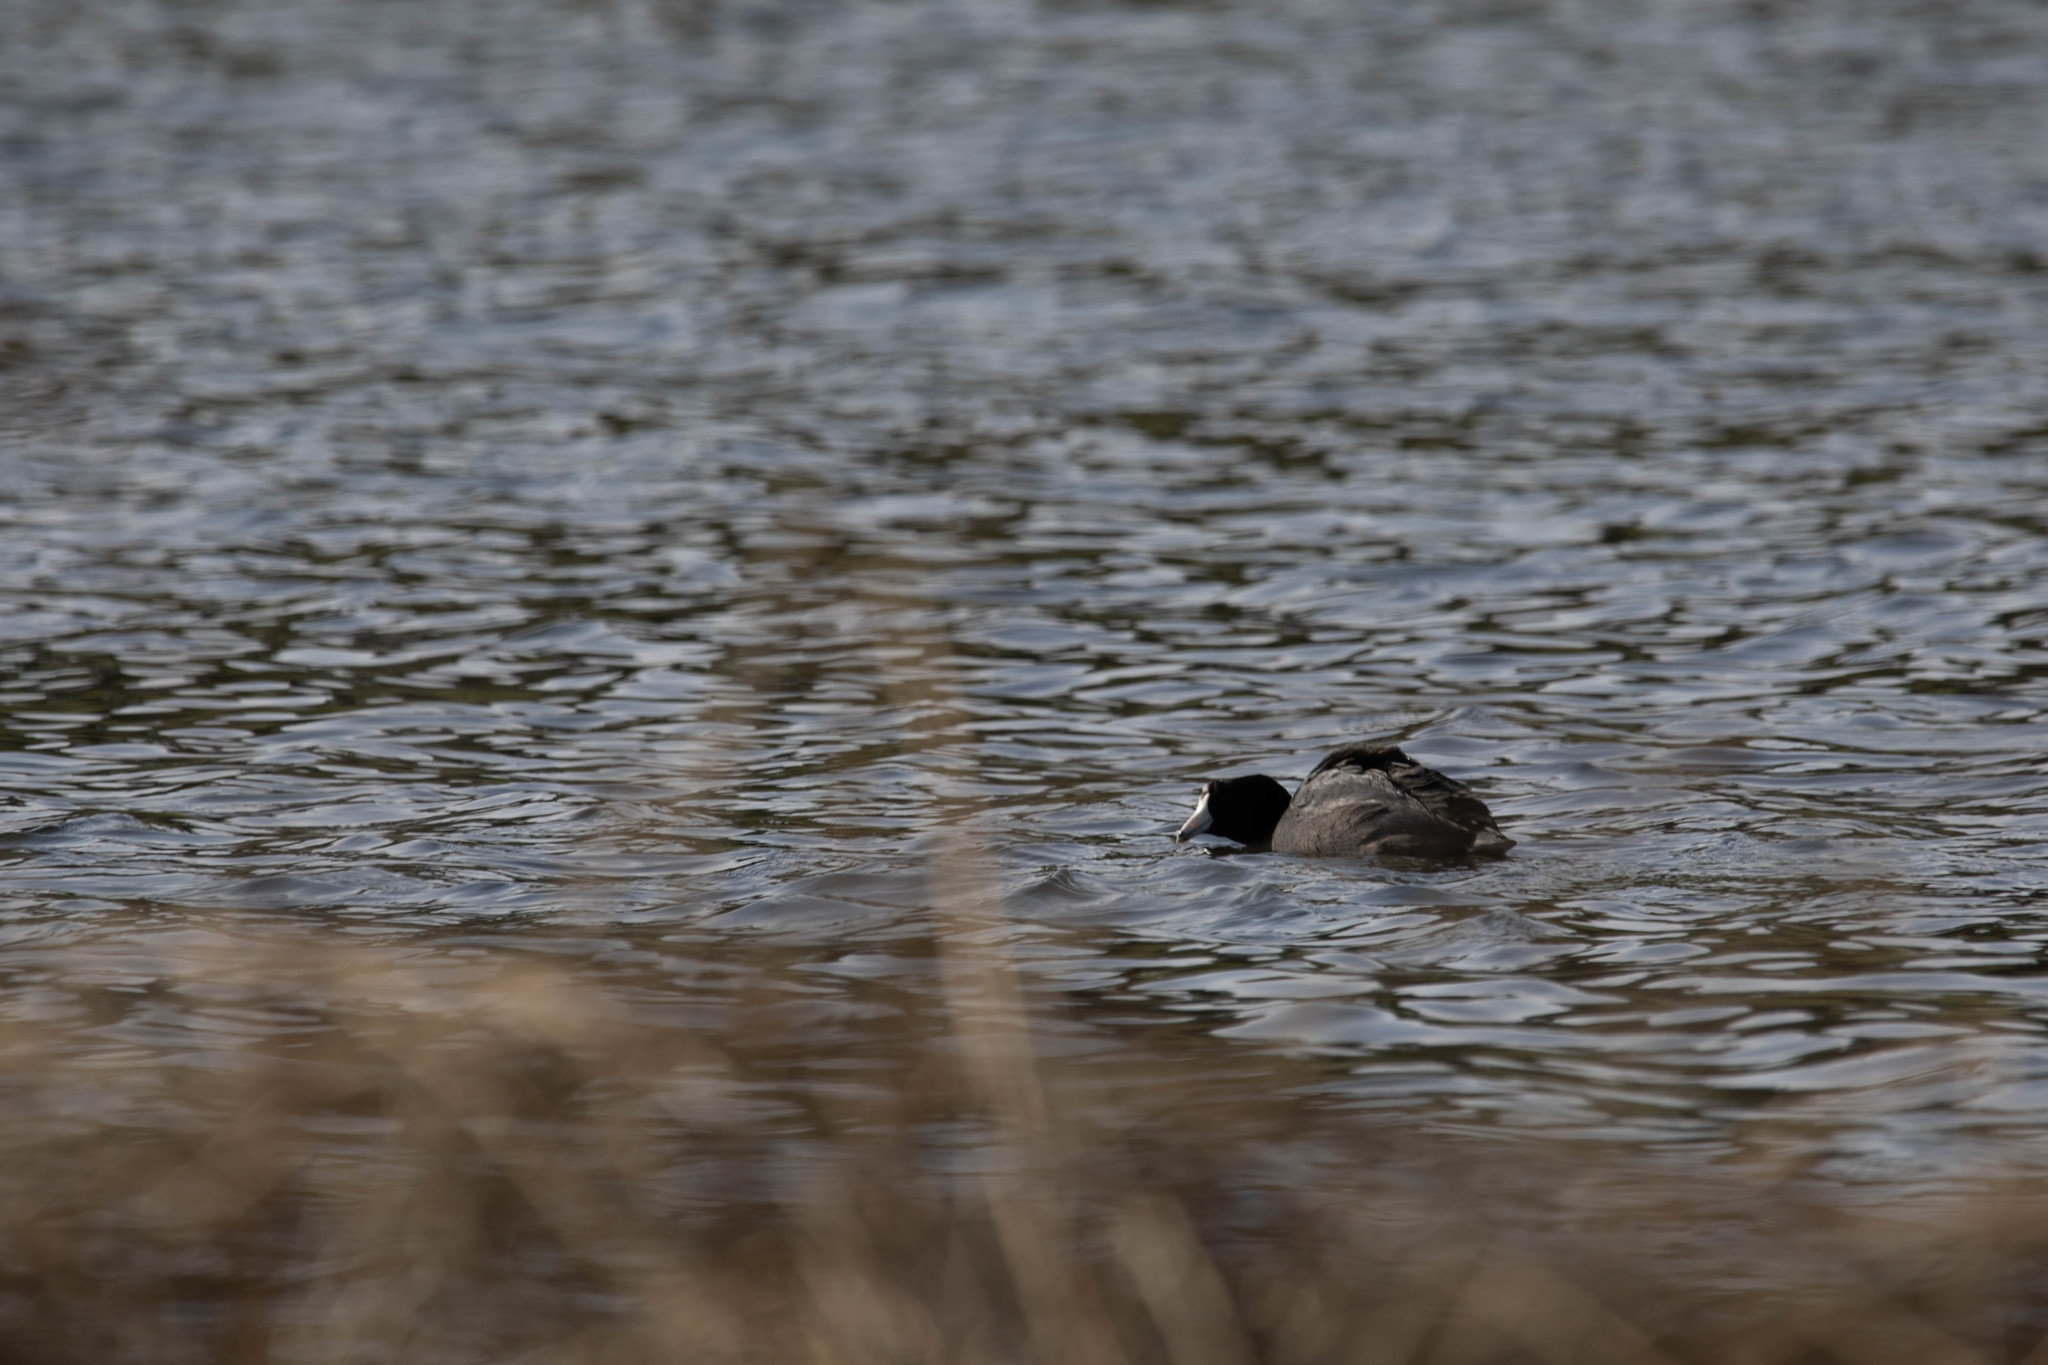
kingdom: Animalia
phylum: Chordata
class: Aves
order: Gruiformes
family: Rallidae
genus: Fulica
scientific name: Fulica americana
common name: American coot
